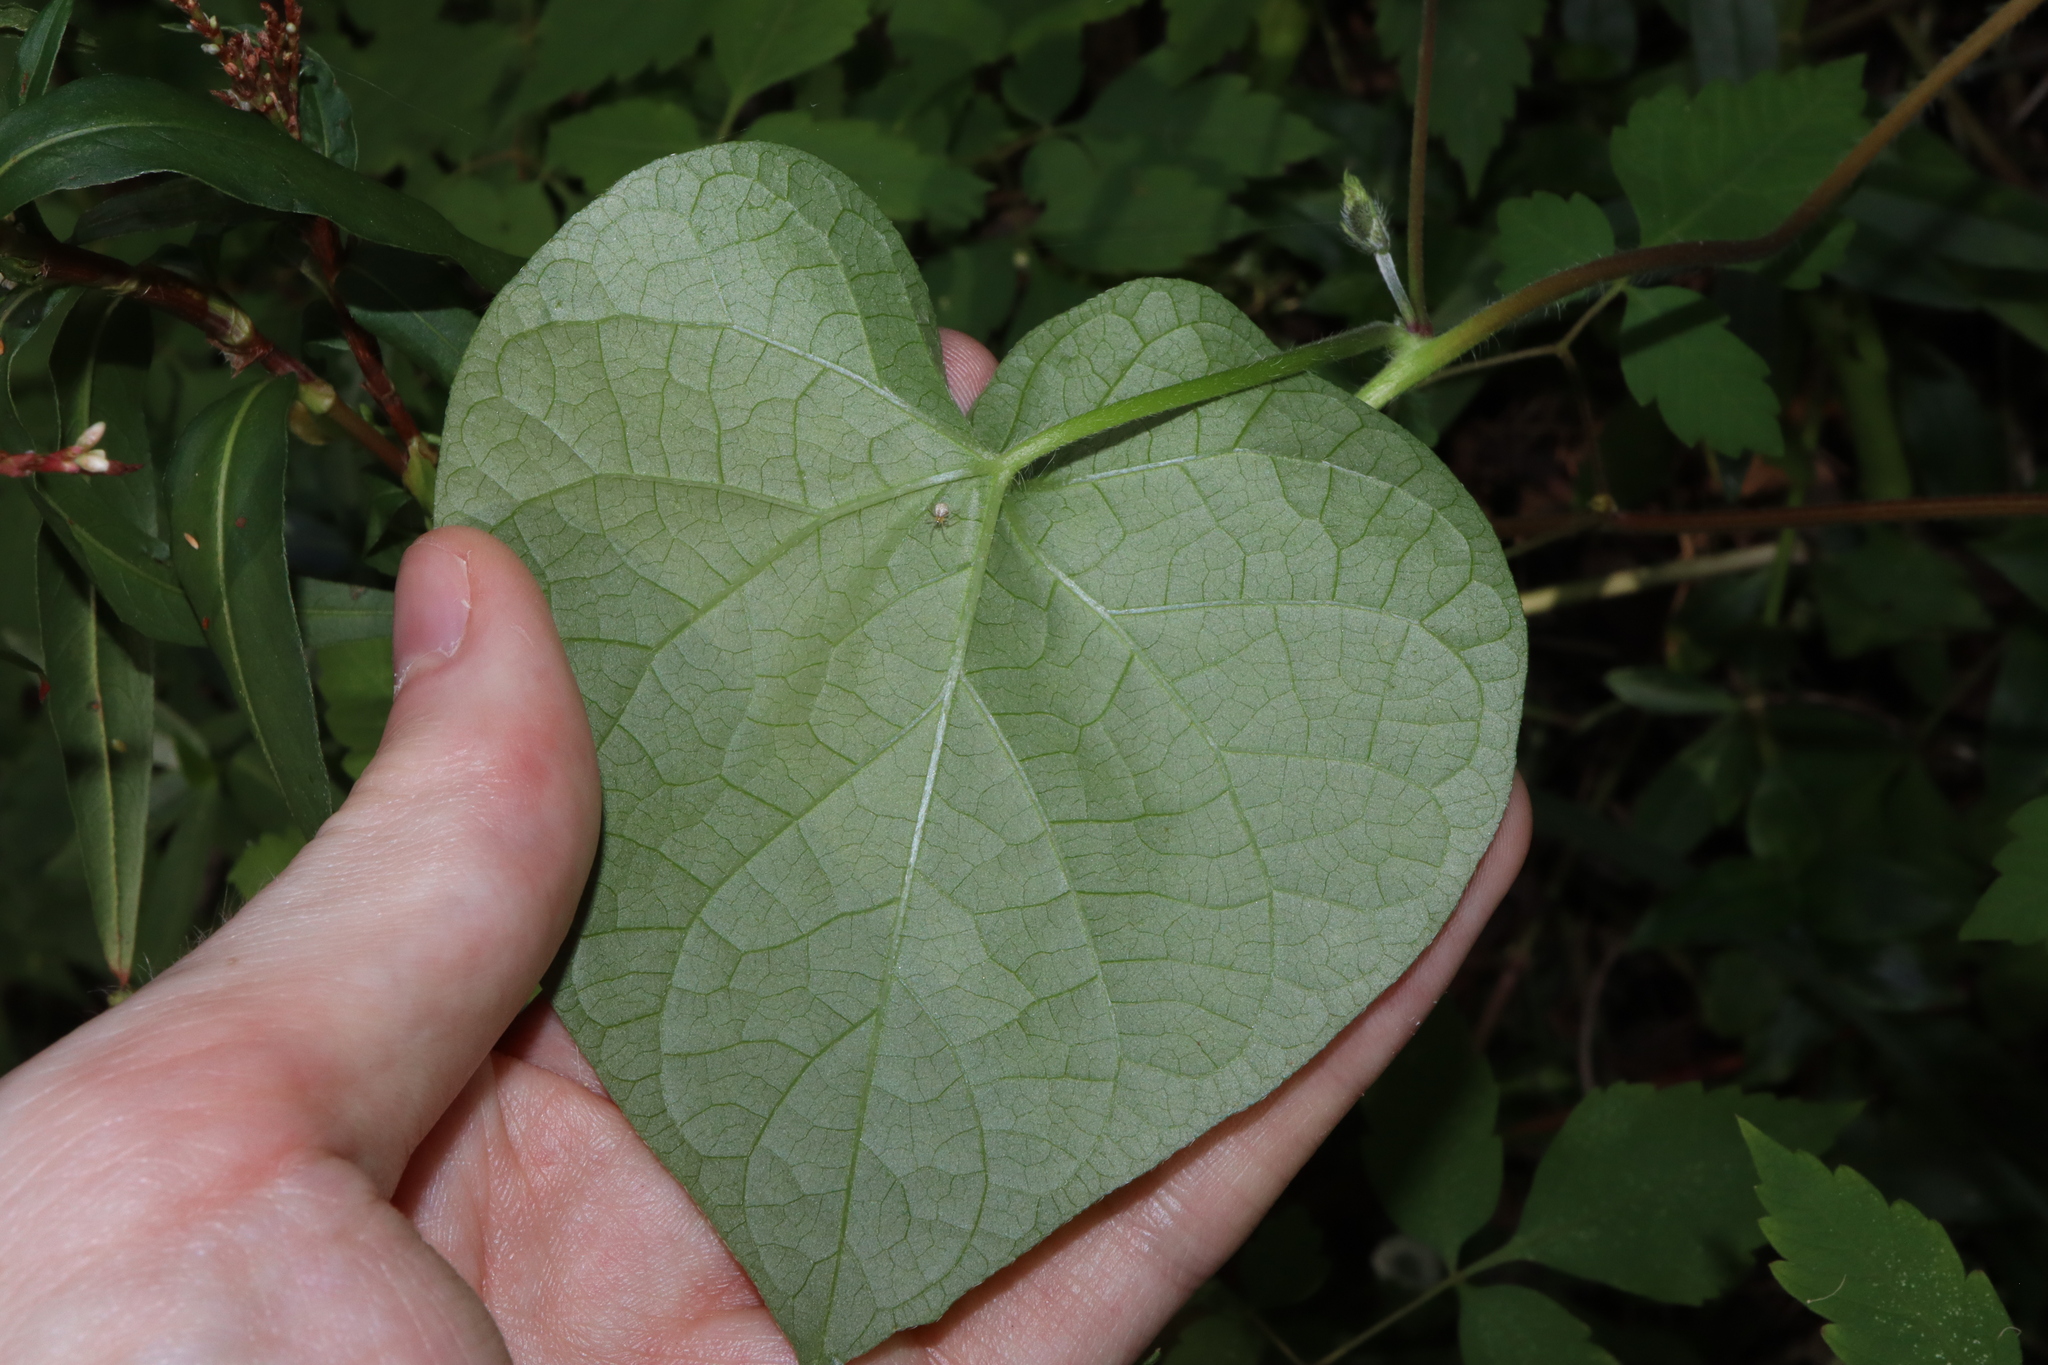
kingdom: Plantae
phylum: Tracheophyta
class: Magnoliopsida
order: Solanales
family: Convolvulaceae
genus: Ipomoea
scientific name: Ipomoea purpurea
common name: Common morning-glory
